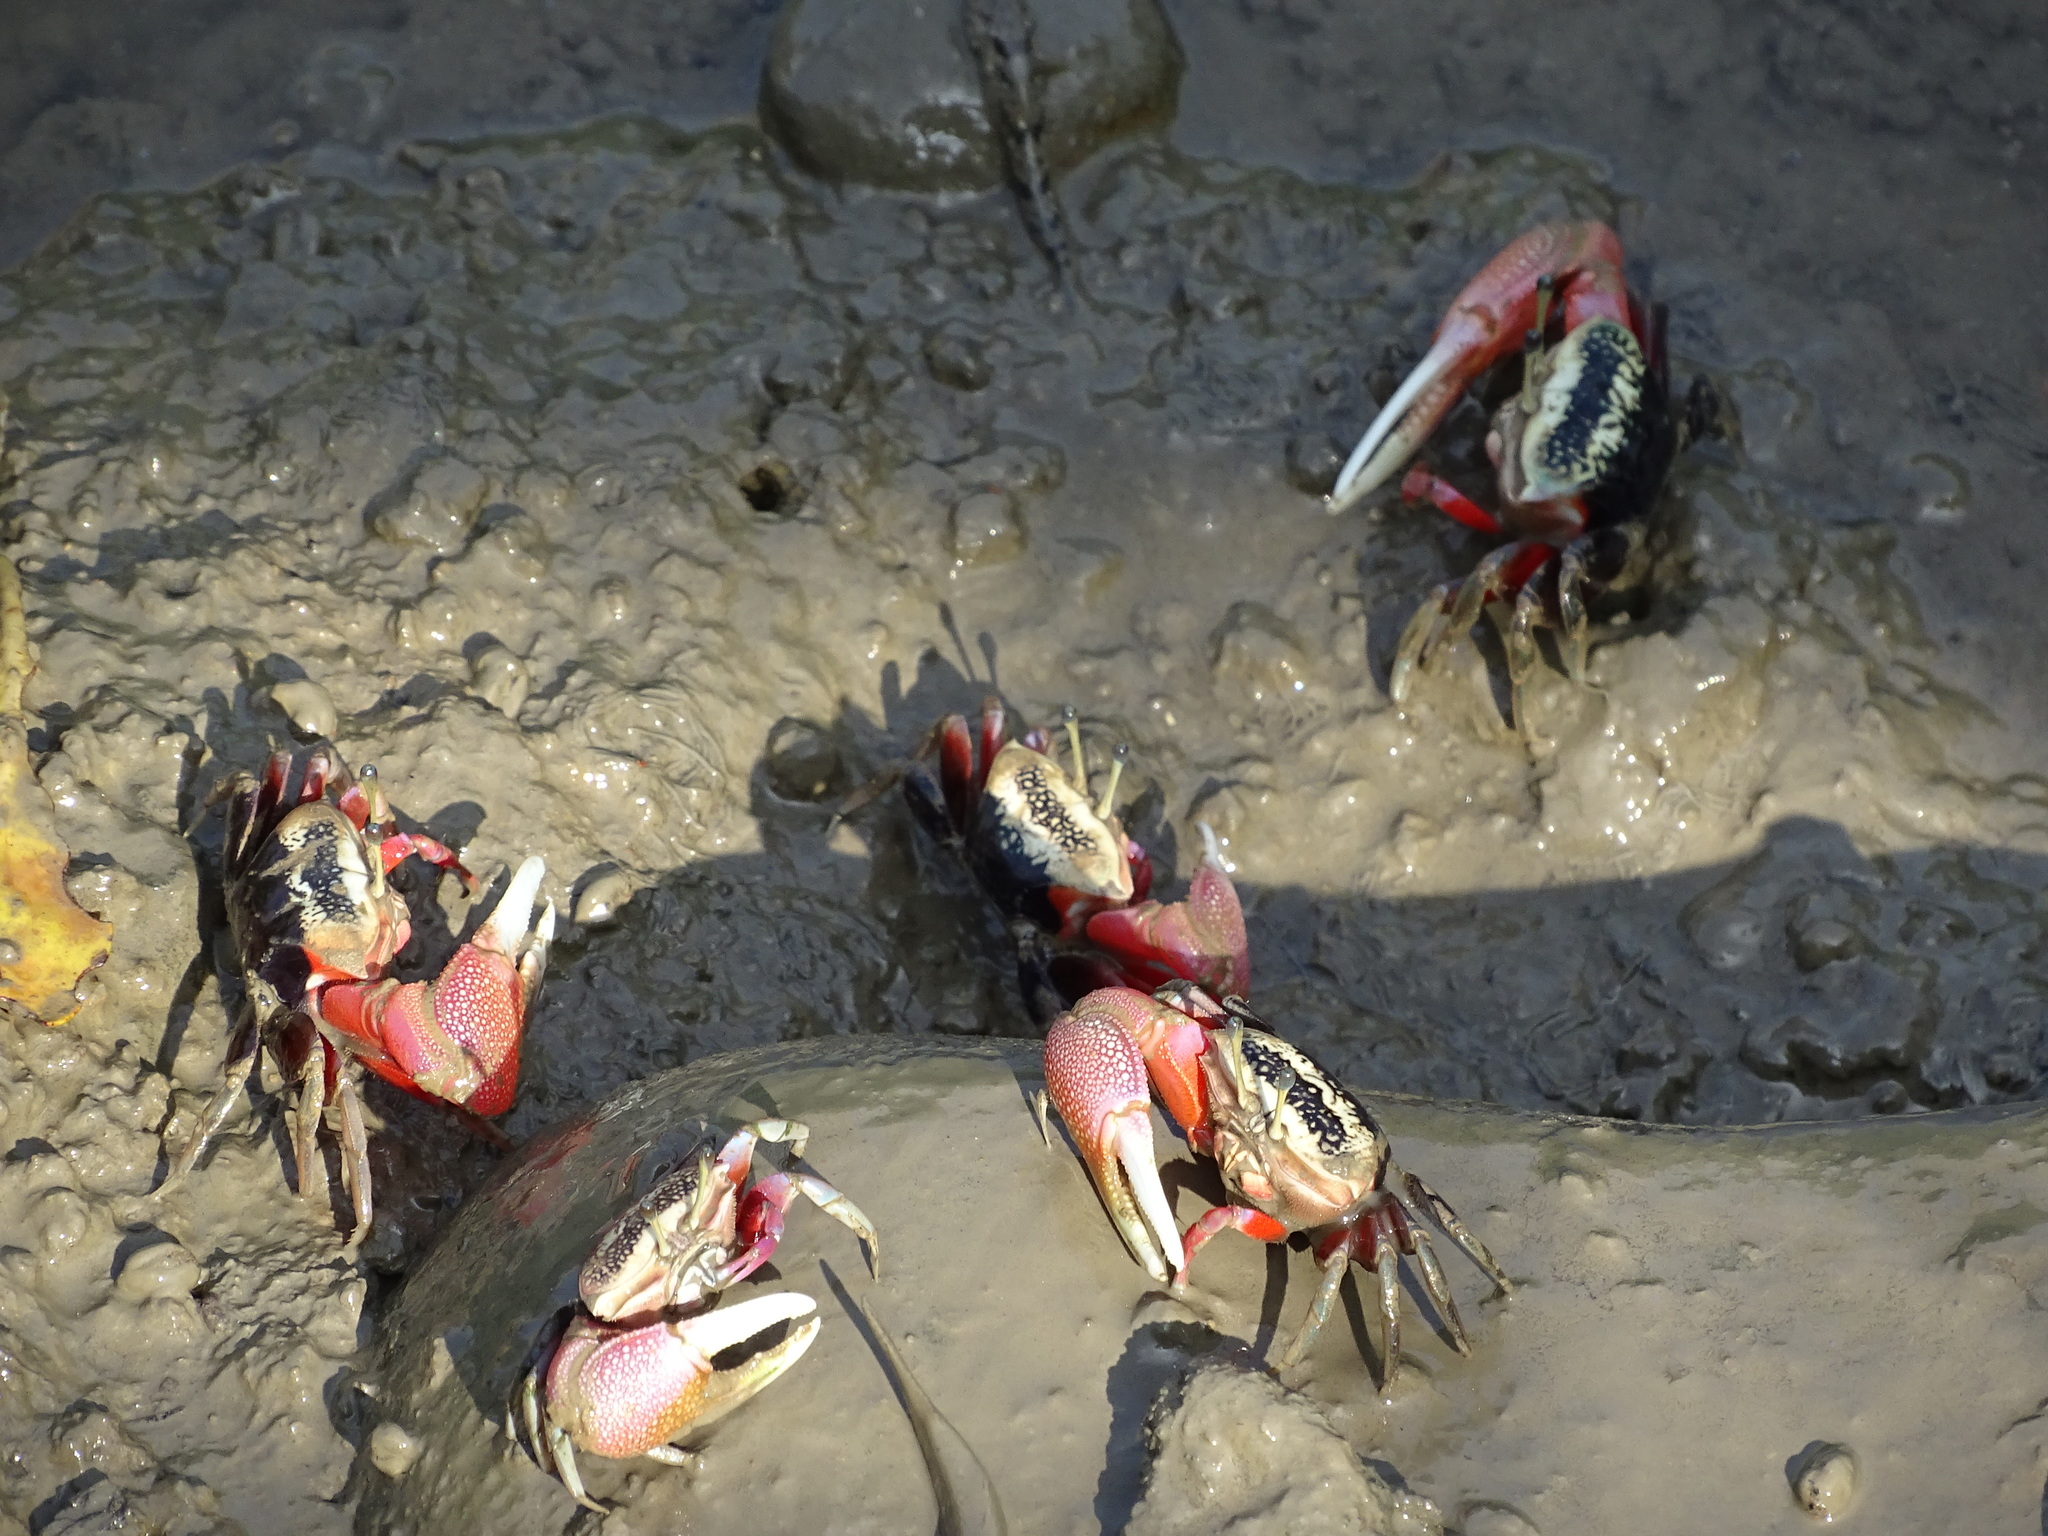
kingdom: Animalia
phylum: Arthropoda
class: Malacostraca
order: Decapoda
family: Ocypodidae
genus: Tubuca
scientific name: Tubuca arcuata
